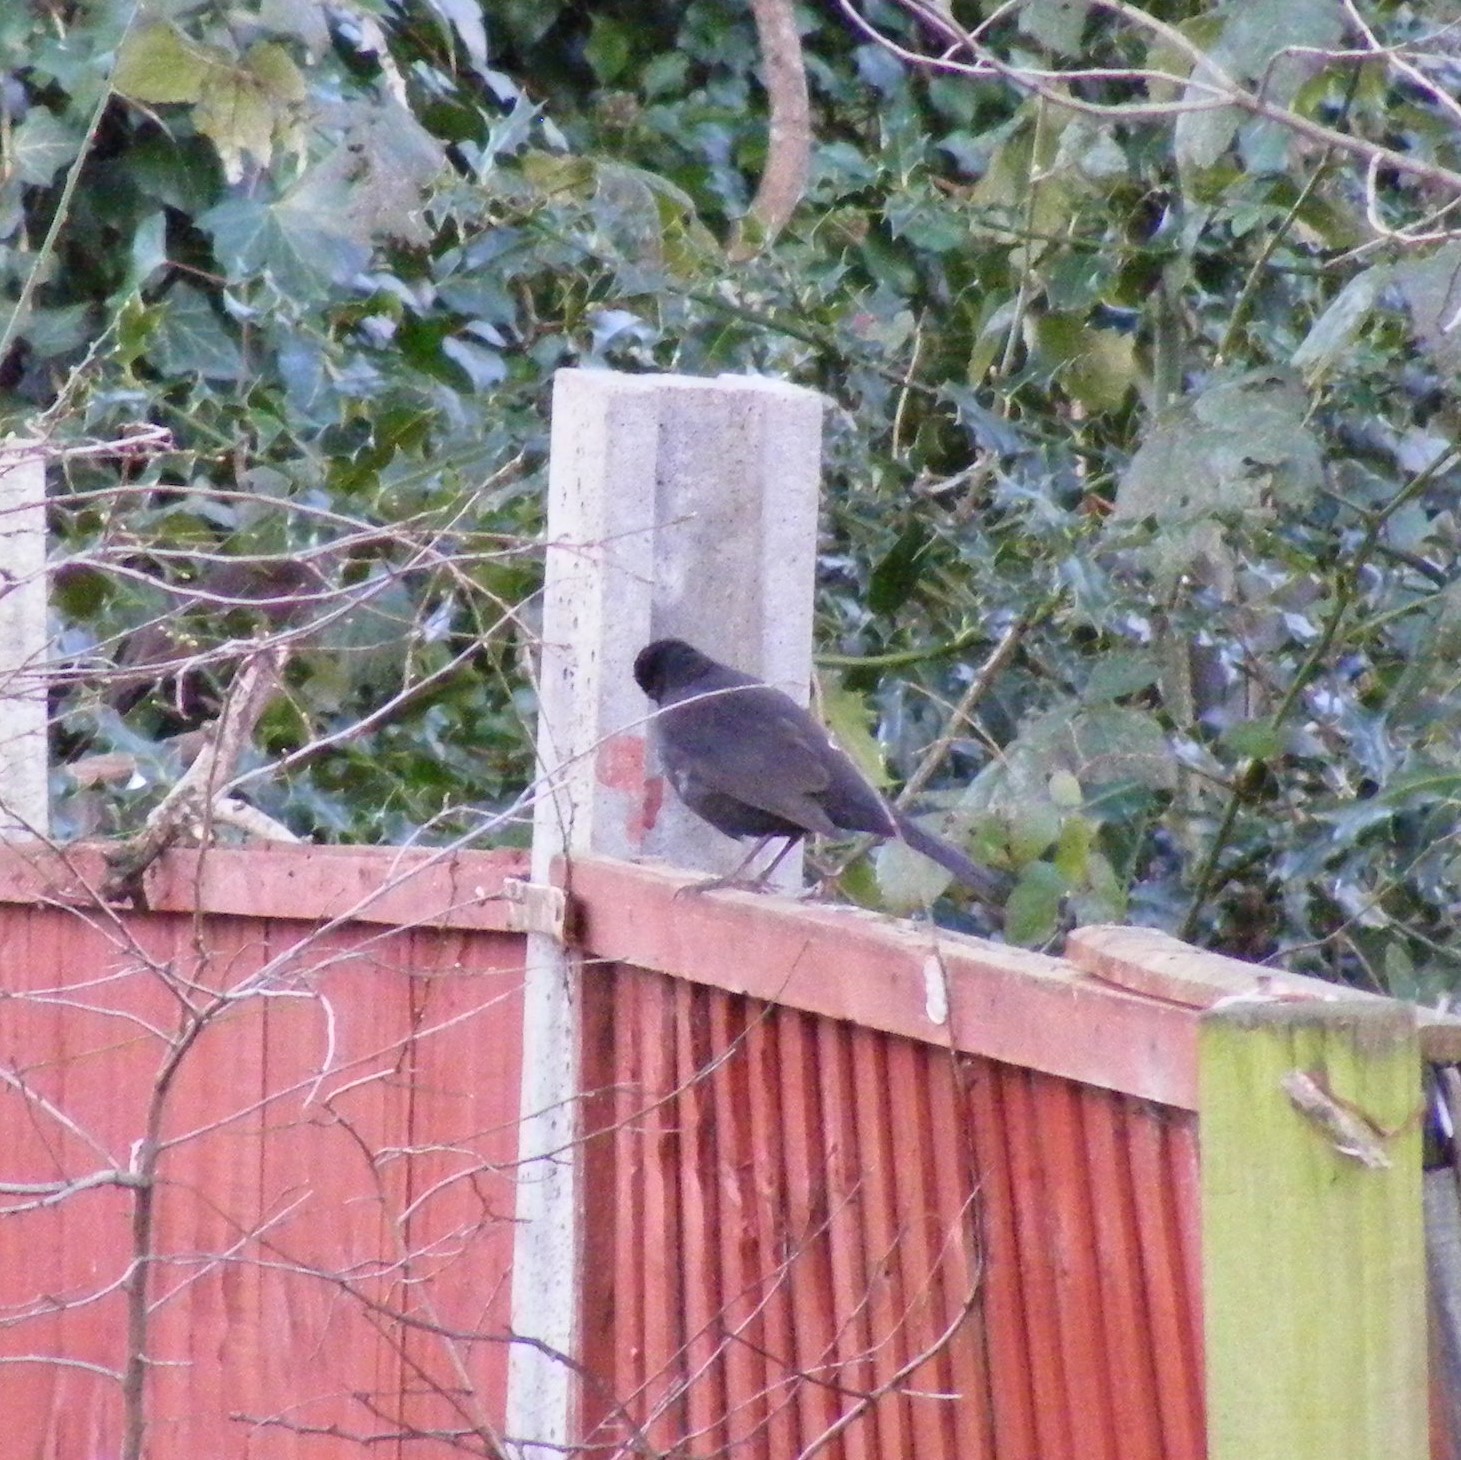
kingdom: Animalia
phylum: Chordata
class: Aves
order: Passeriformes
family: Turdidae
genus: Turdus
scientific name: Turdus merula
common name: Common blackbird
